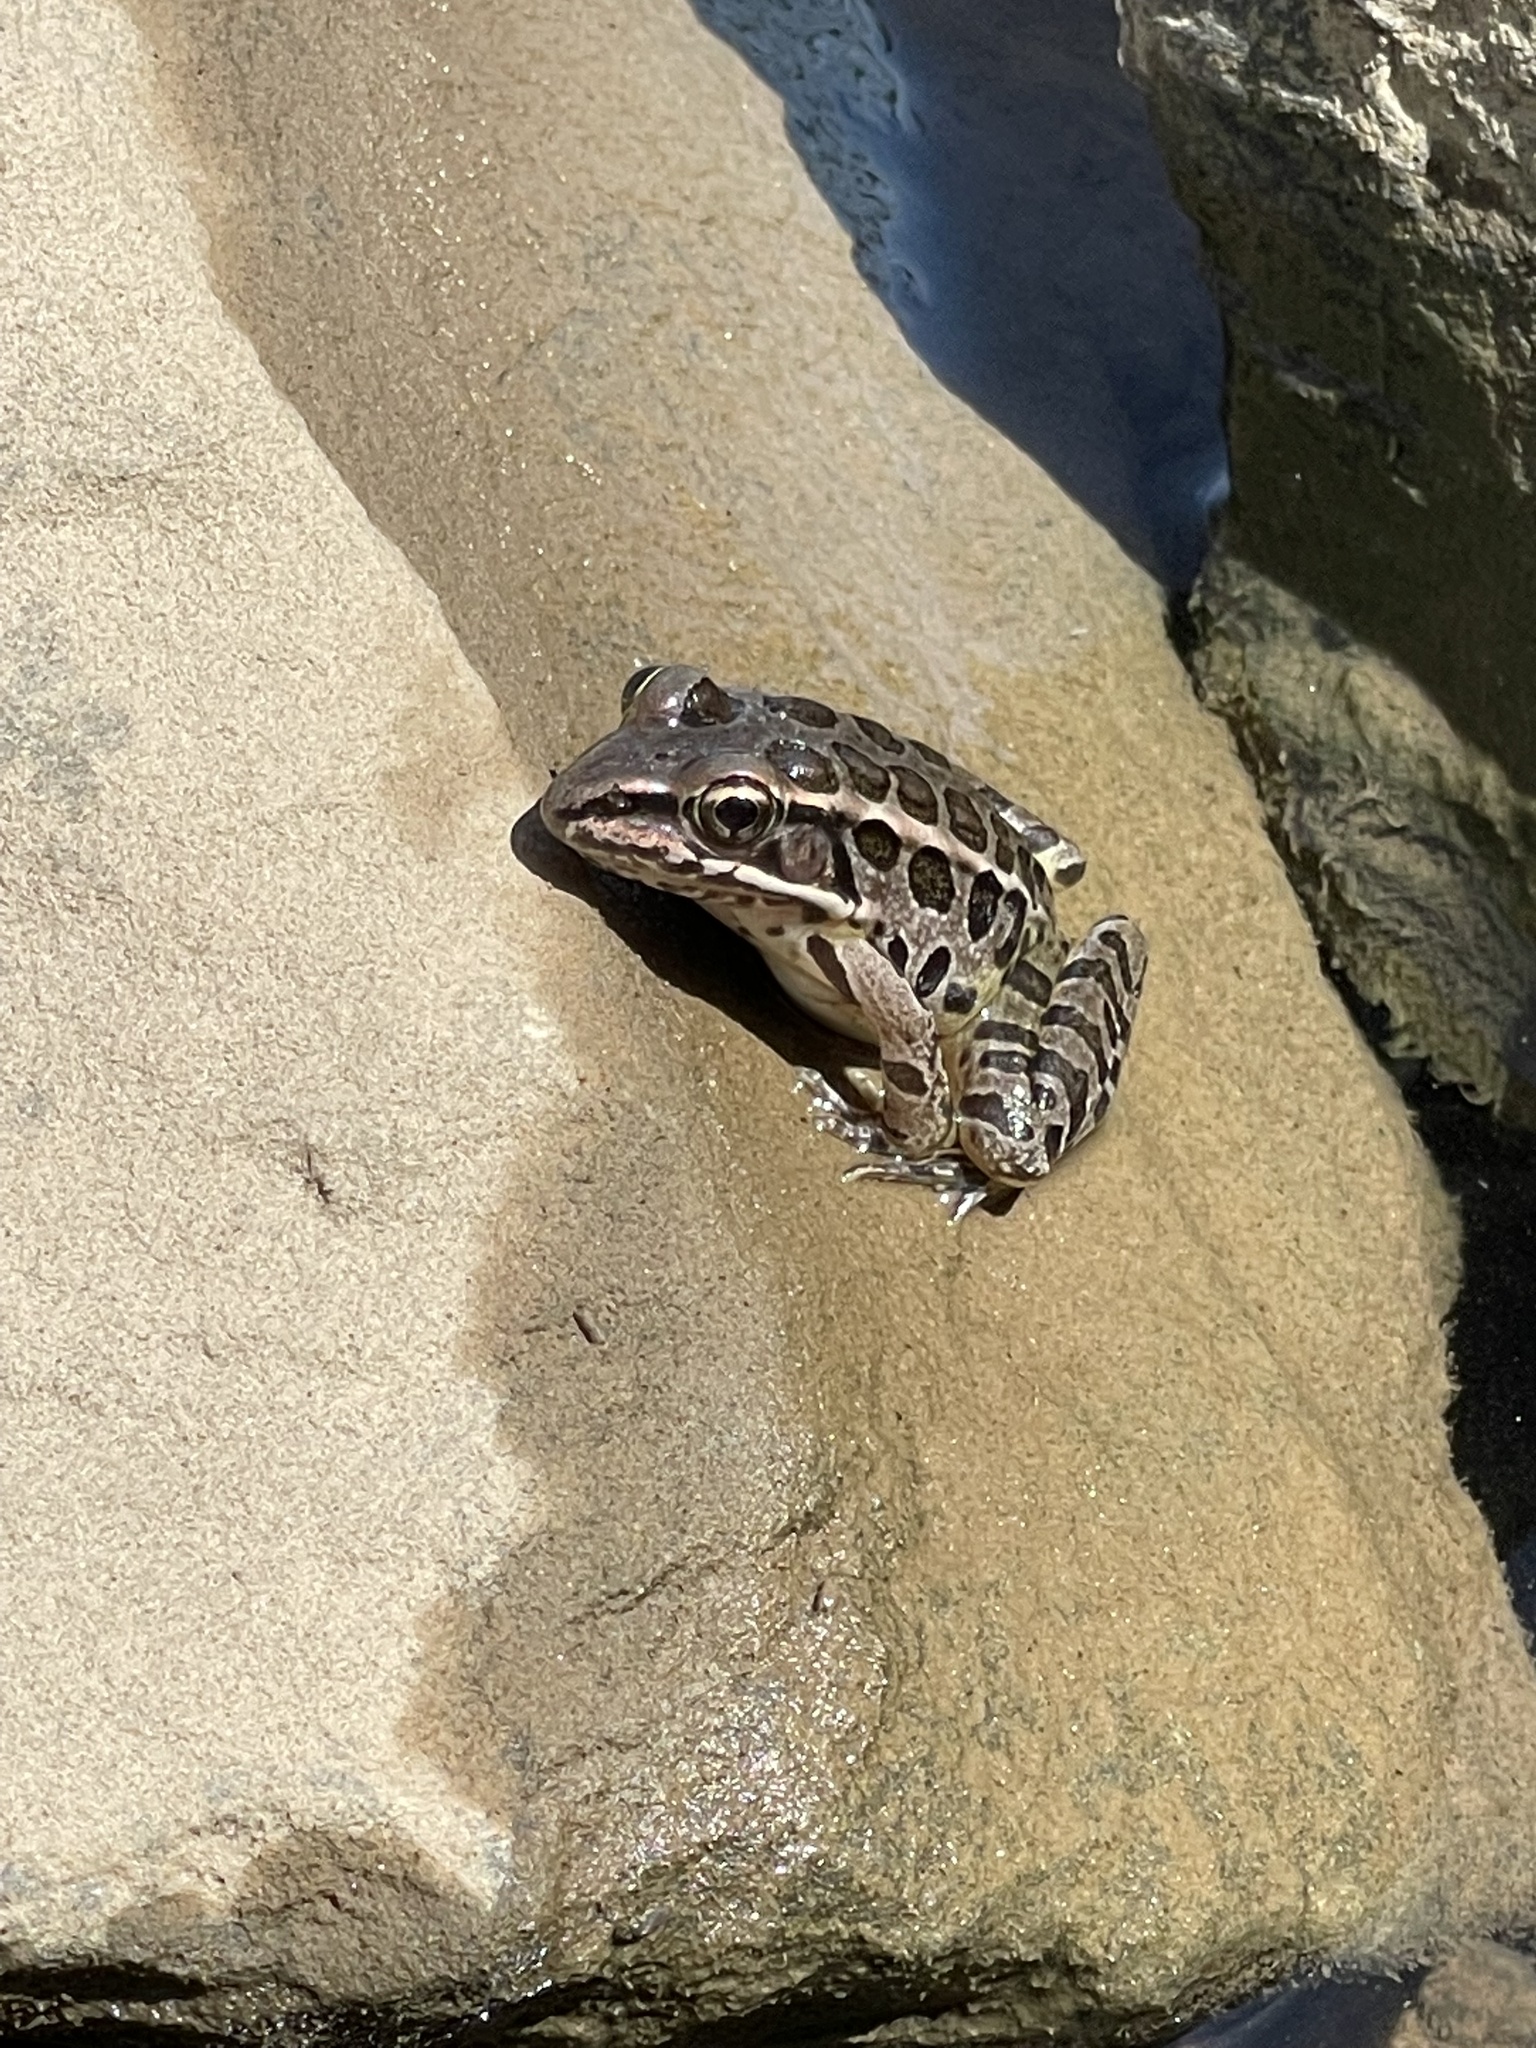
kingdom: Animalia
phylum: Chordata
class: Amphibia
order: Anura
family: Ranidae
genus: Lithobates
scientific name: Lithobates palustris
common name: Pickerel frog
